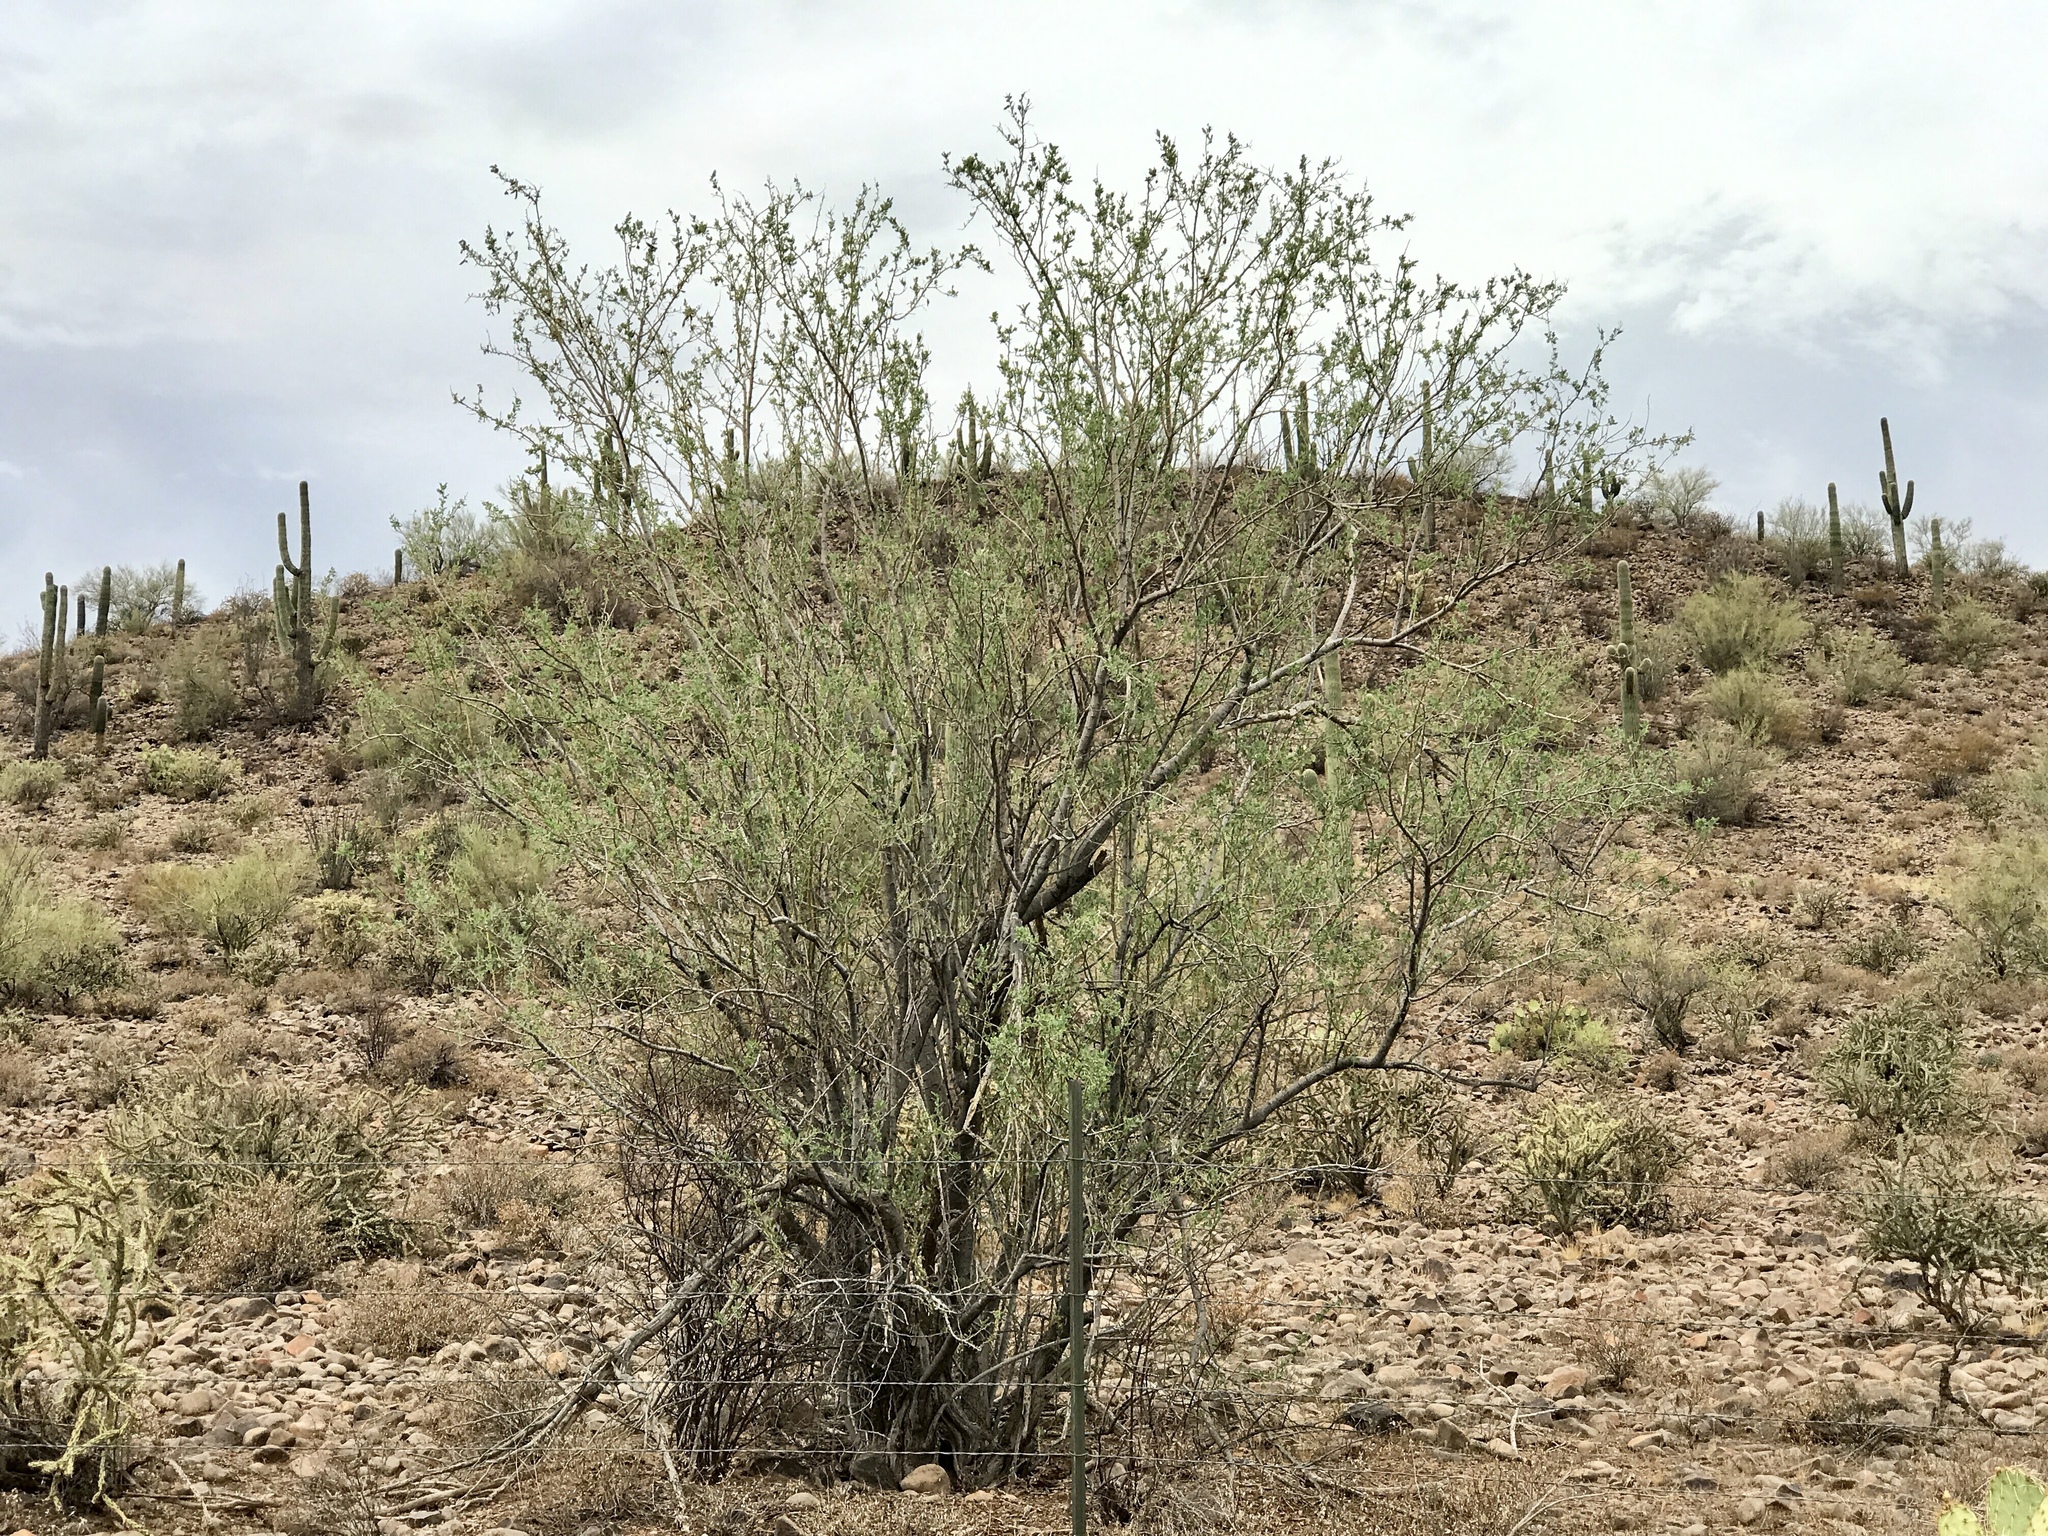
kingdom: Plantae
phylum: Tracheophyta
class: Magnoliopsida
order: Fabales
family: Fabaceae
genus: Olneya
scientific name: Olneya tesota
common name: Desert ironwood
